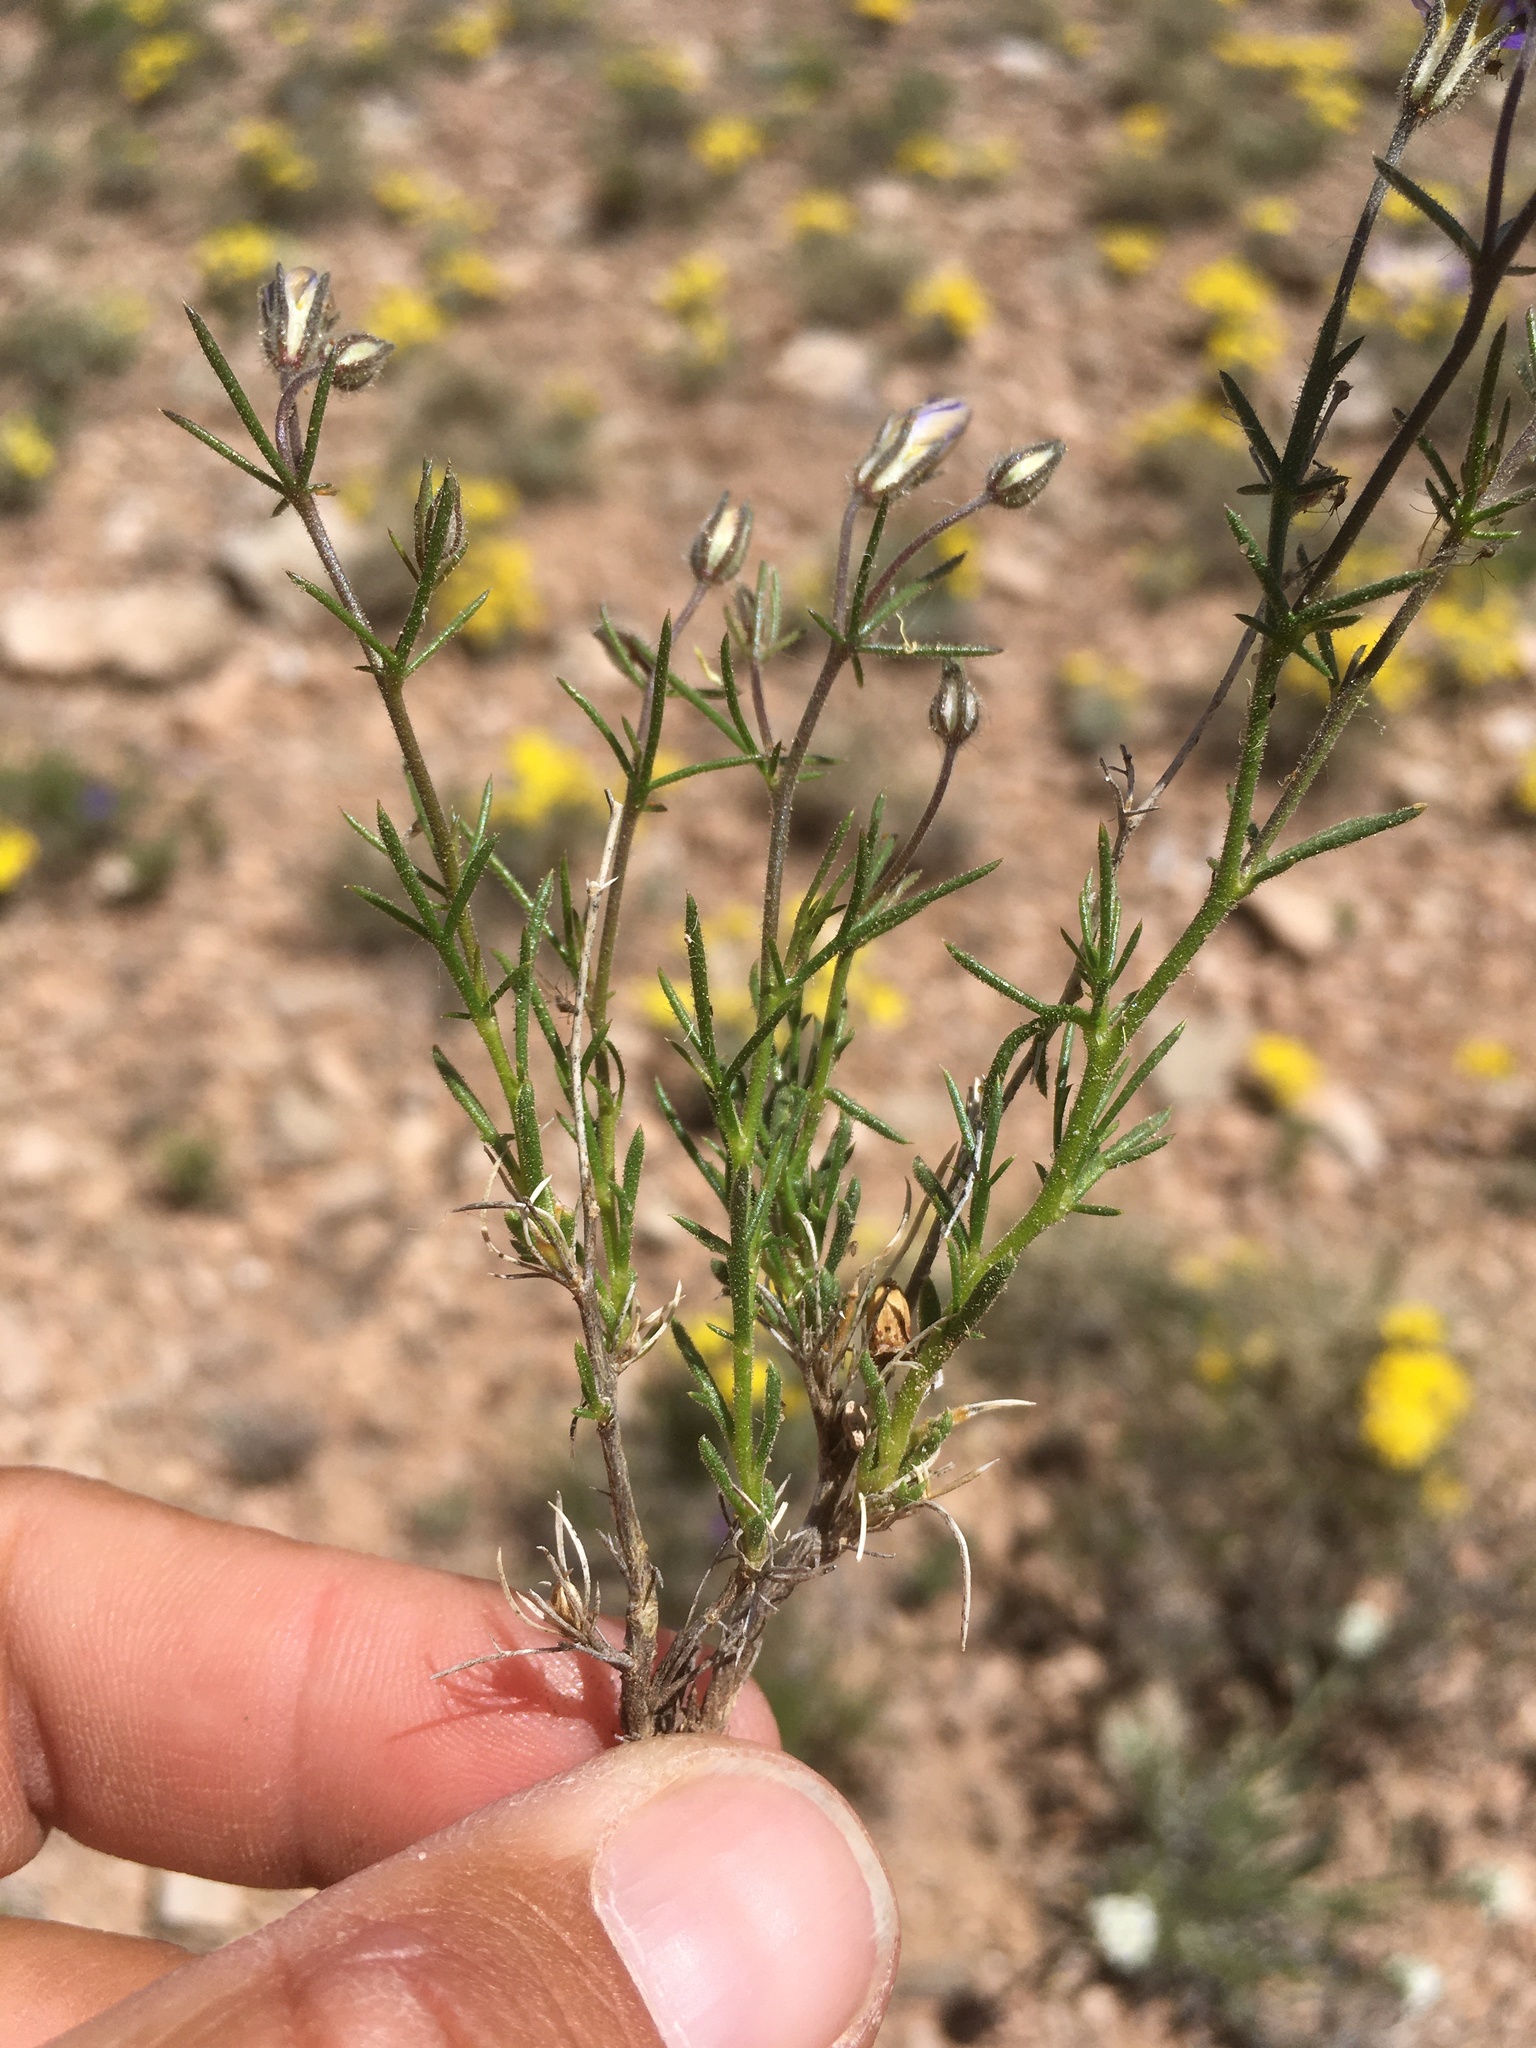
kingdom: Plantae
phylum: Tracheophyta
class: Magnoliopsida
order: Ericales
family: Polemoniaceae
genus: Giliastrum
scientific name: Giliastrum acerosum
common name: Bluebowls
